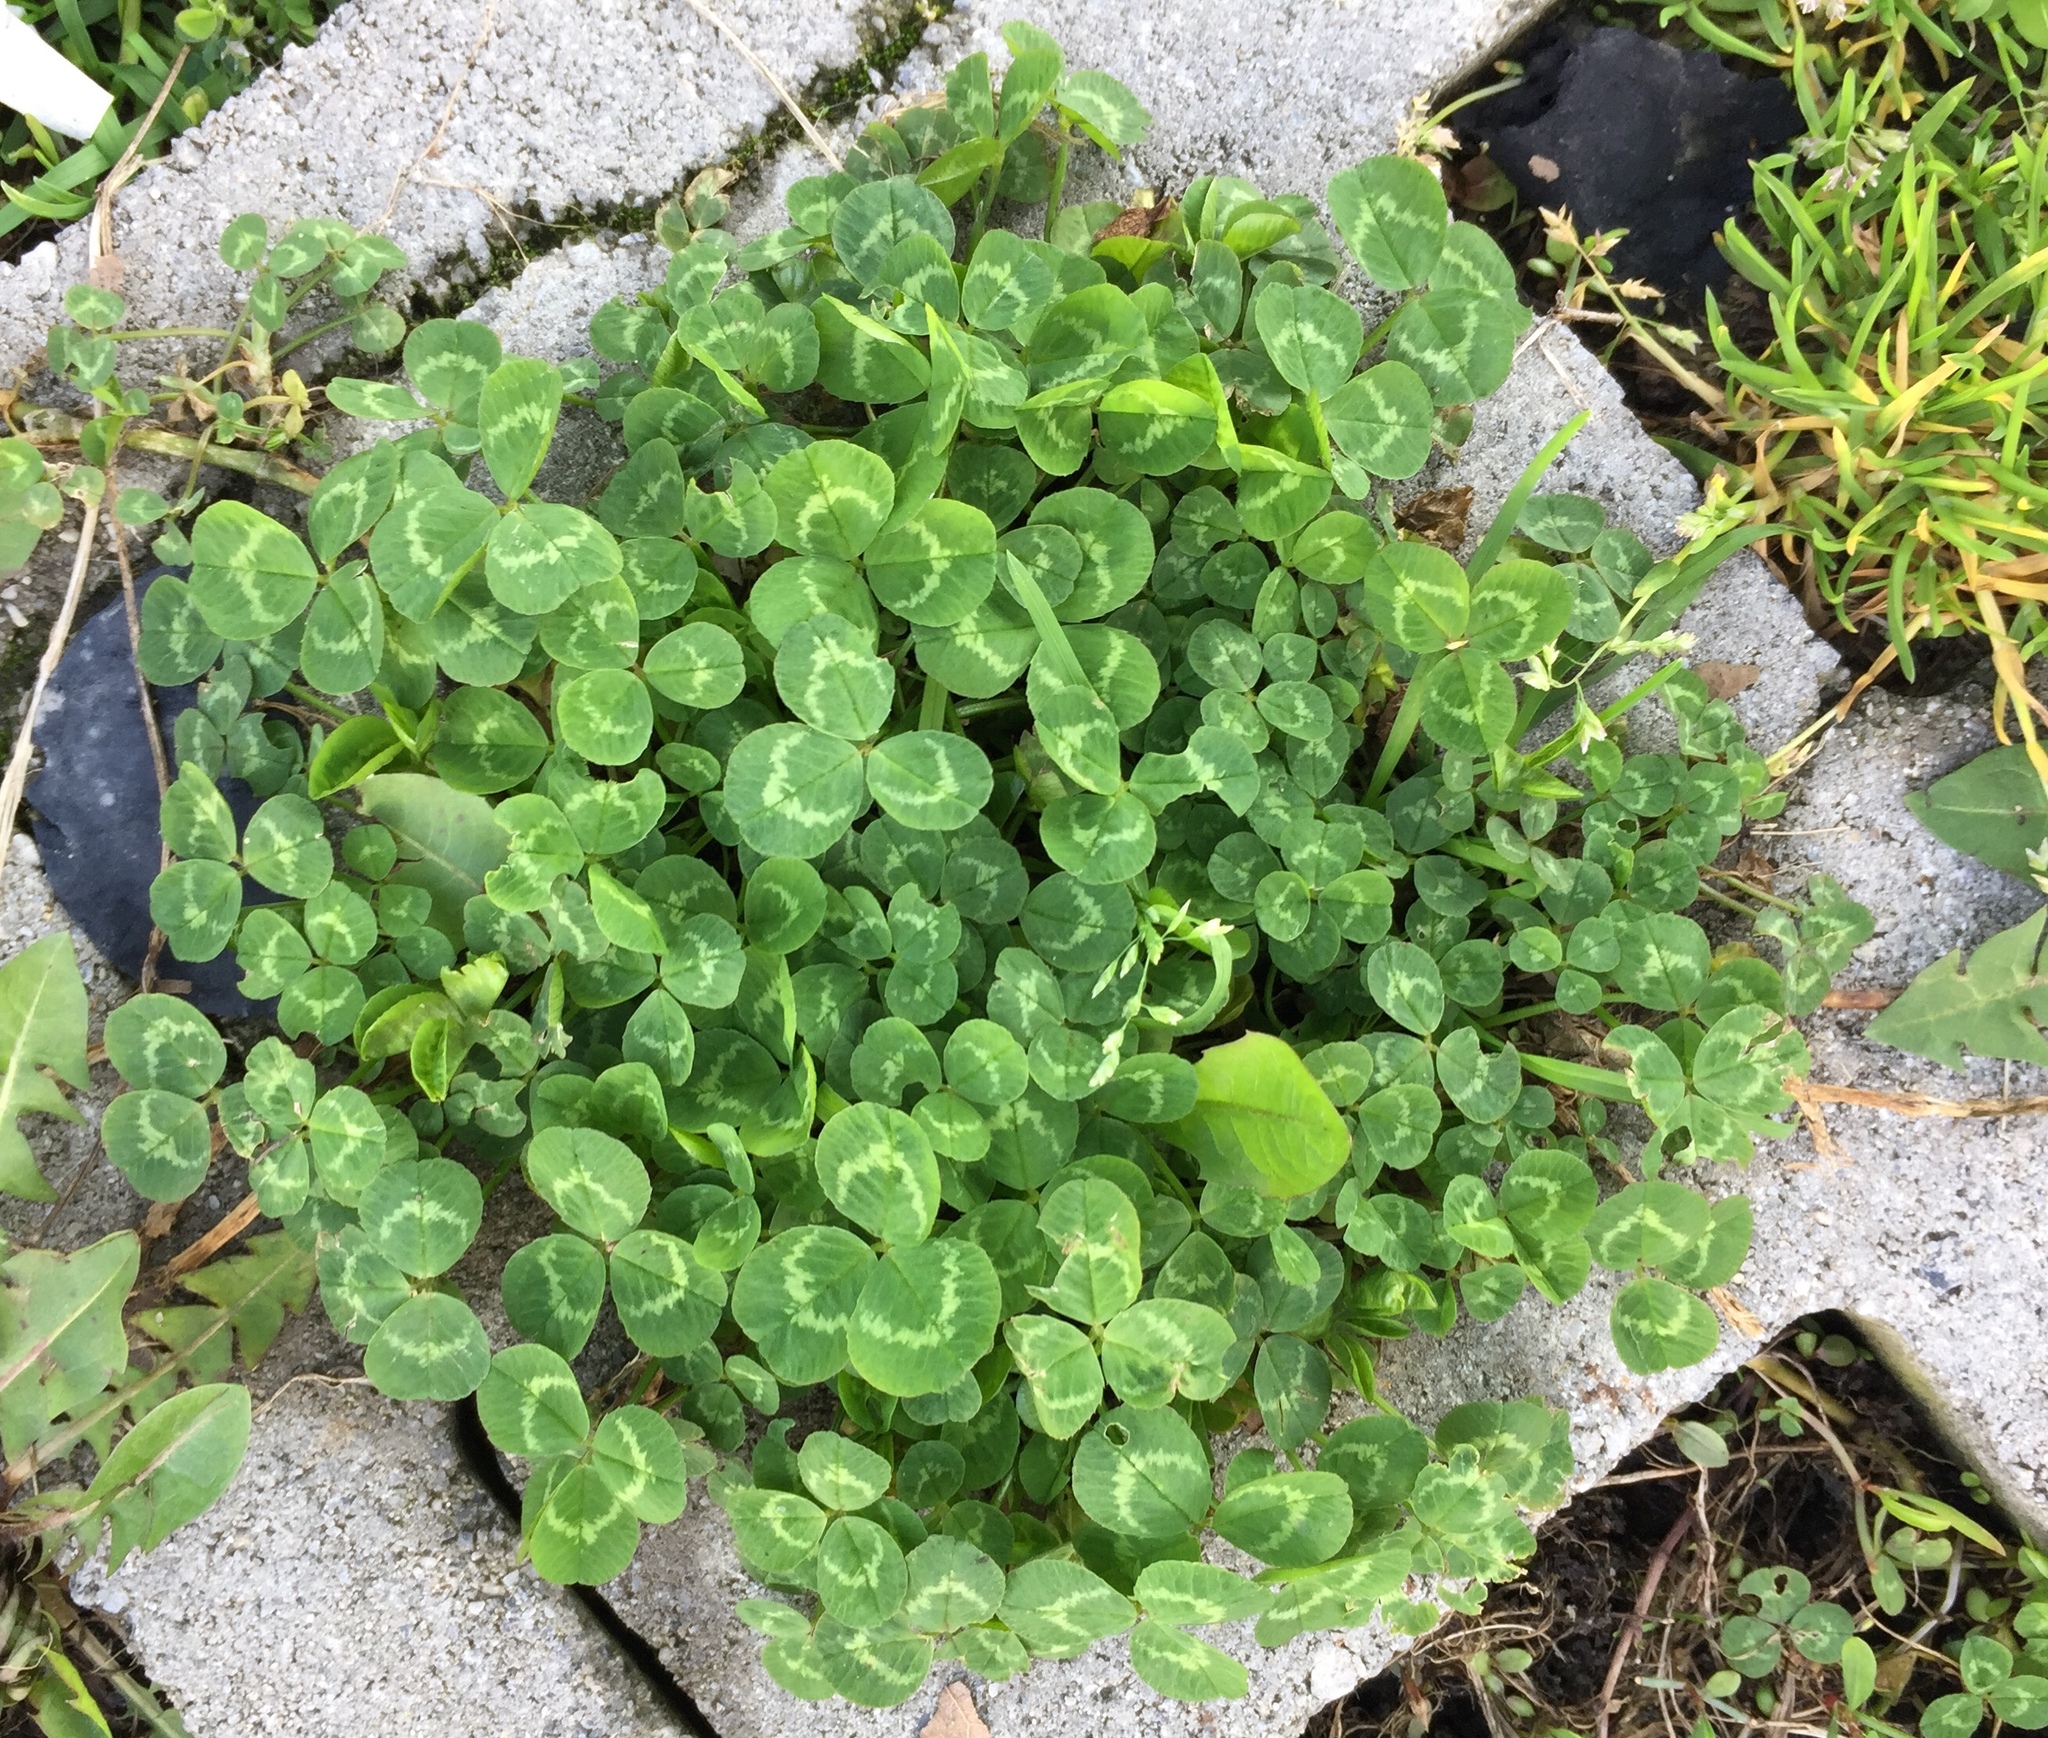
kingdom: Plantae
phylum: Tracheophyta
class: Magnoliopsida
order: Fabales
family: Fabaceae
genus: Trifolium
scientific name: Trifolium repens
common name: White clover
